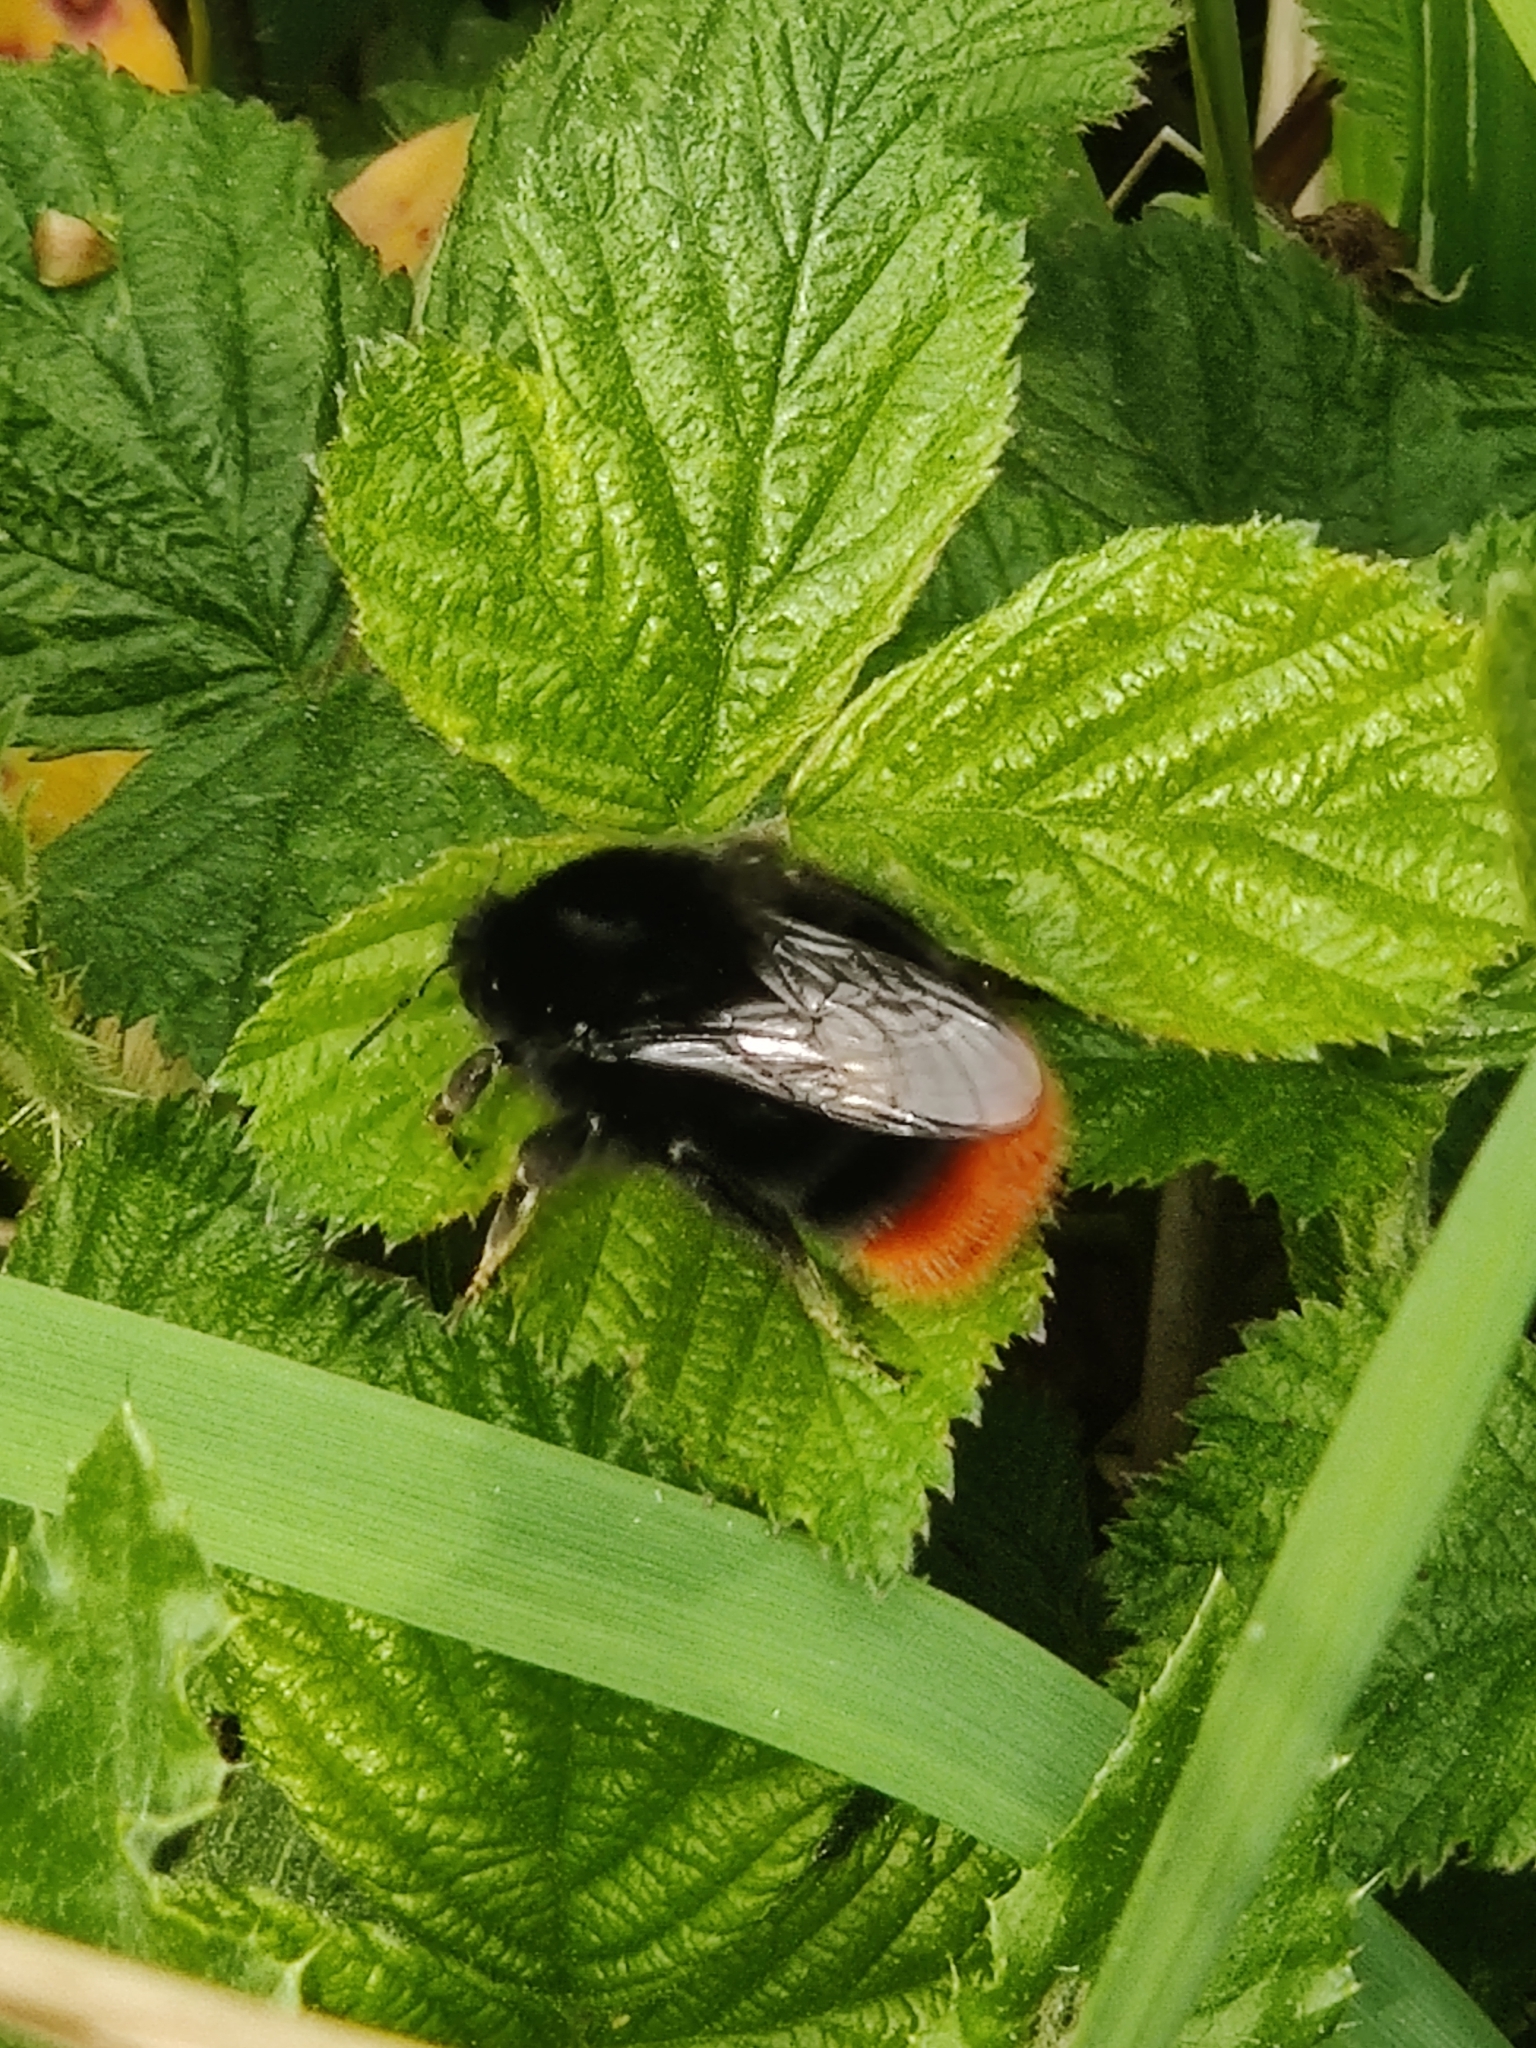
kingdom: Animalia
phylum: Arthropoda
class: Insecta
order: Hymenoptera
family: Apidae
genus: Bombus
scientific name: Bombus lapidarius
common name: Large red-tailed humble-bee
